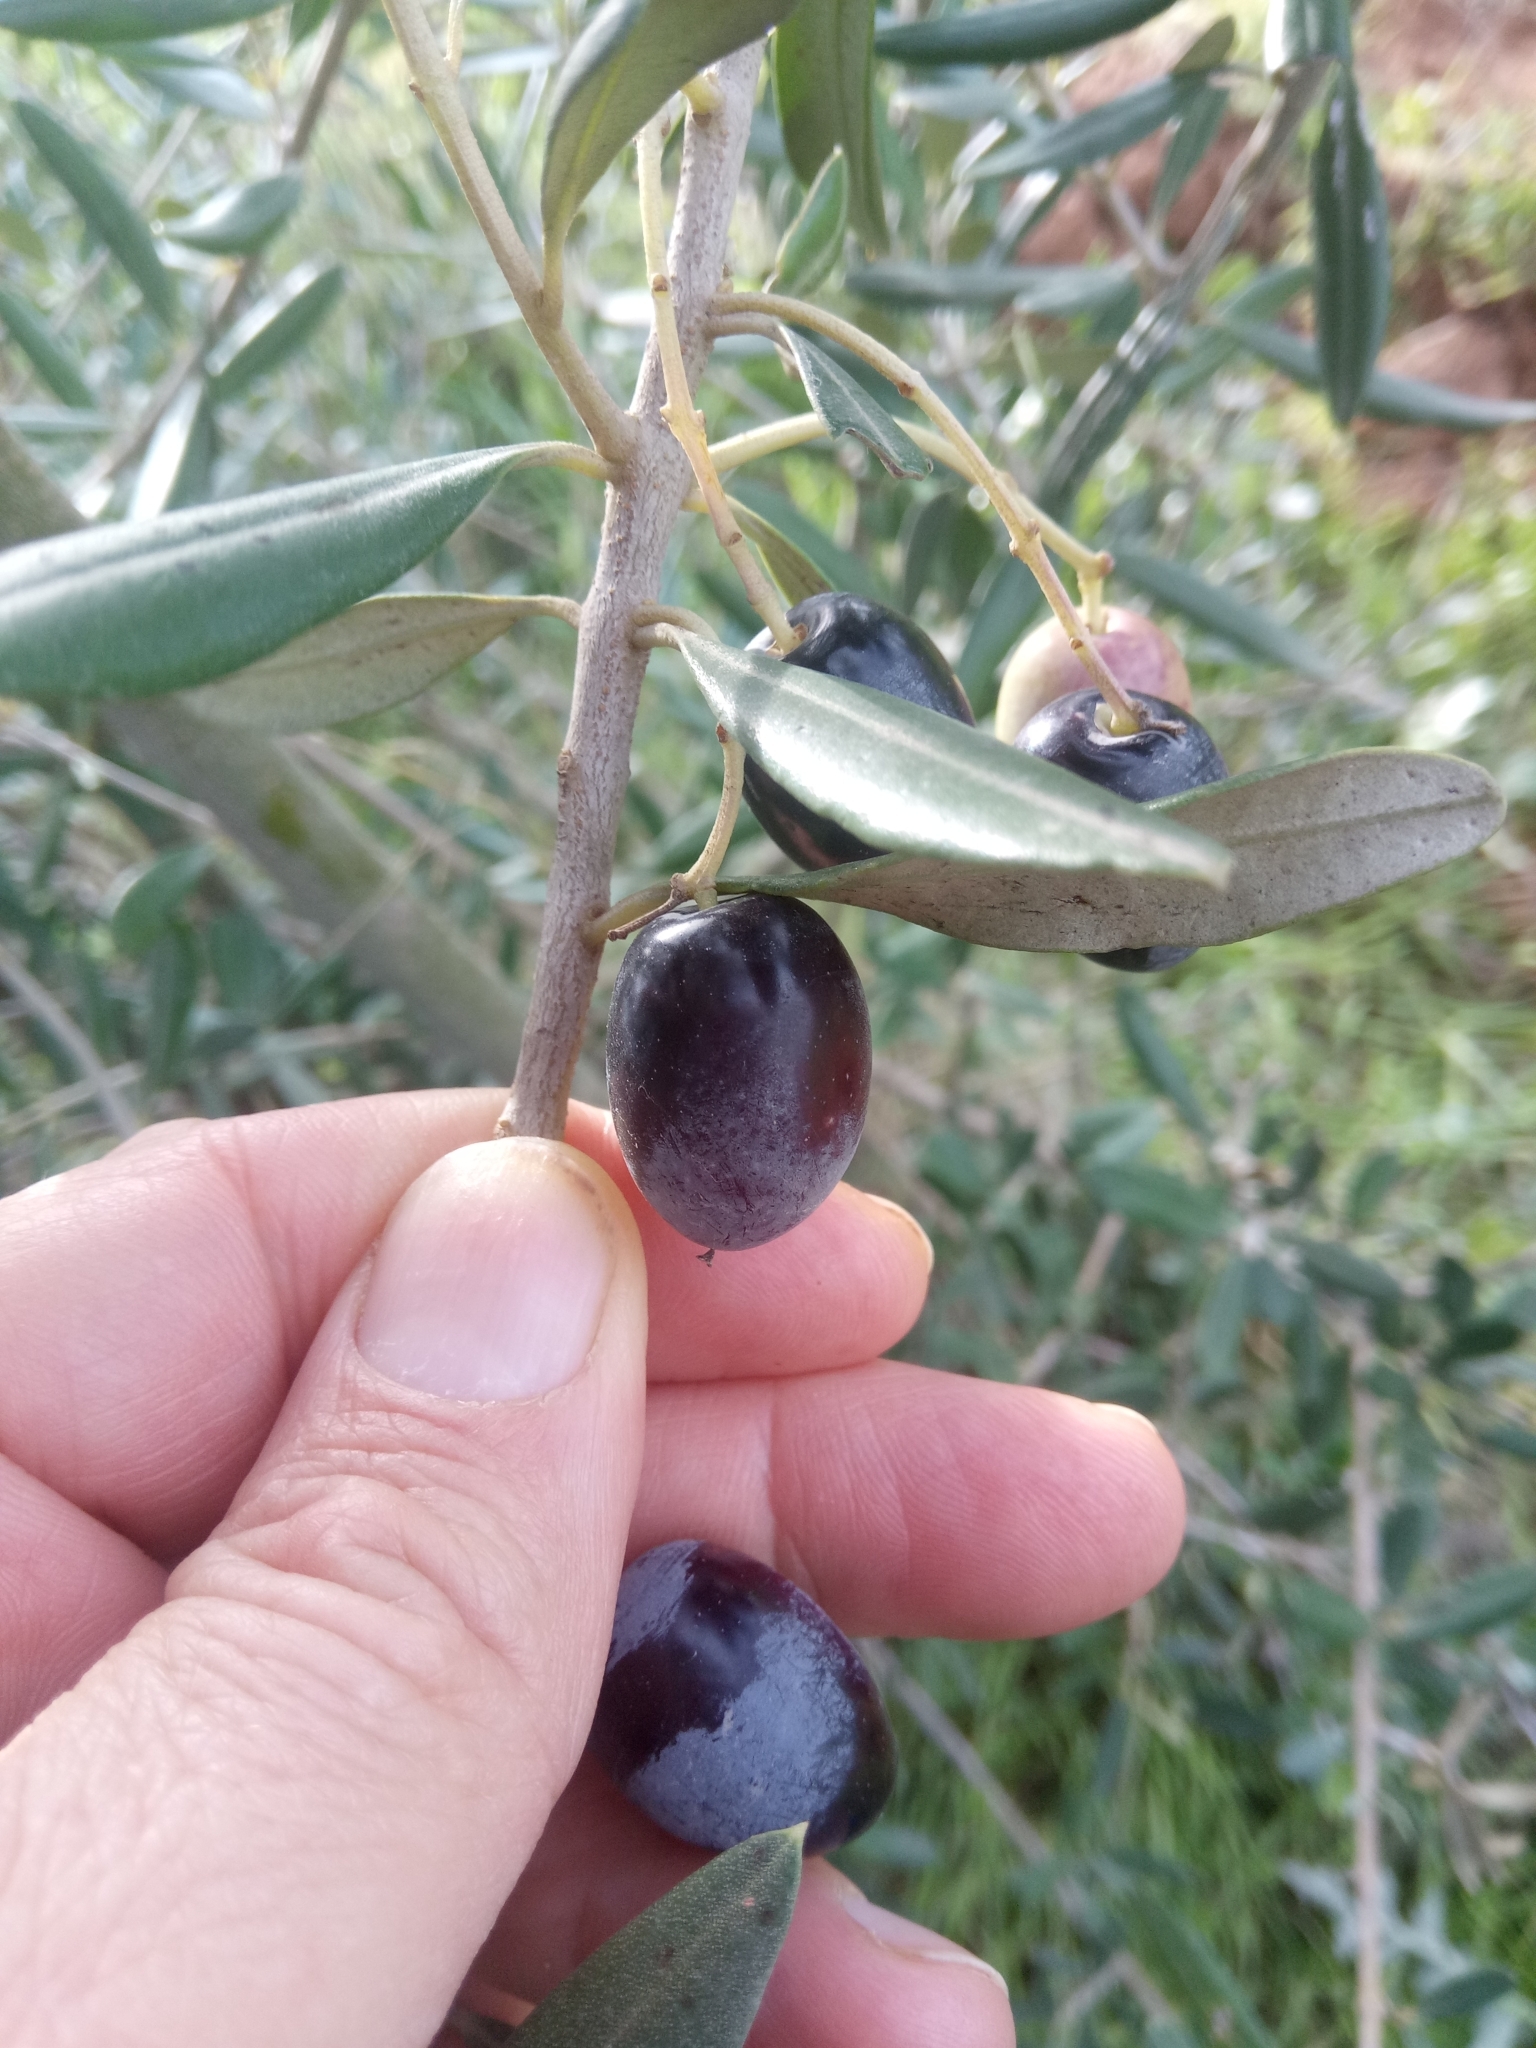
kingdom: Plantae
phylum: Tracheophyta
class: Magnoliopsida
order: Lamiales
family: Oleaceae
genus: Olea
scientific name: Olea europaea
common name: Olive
